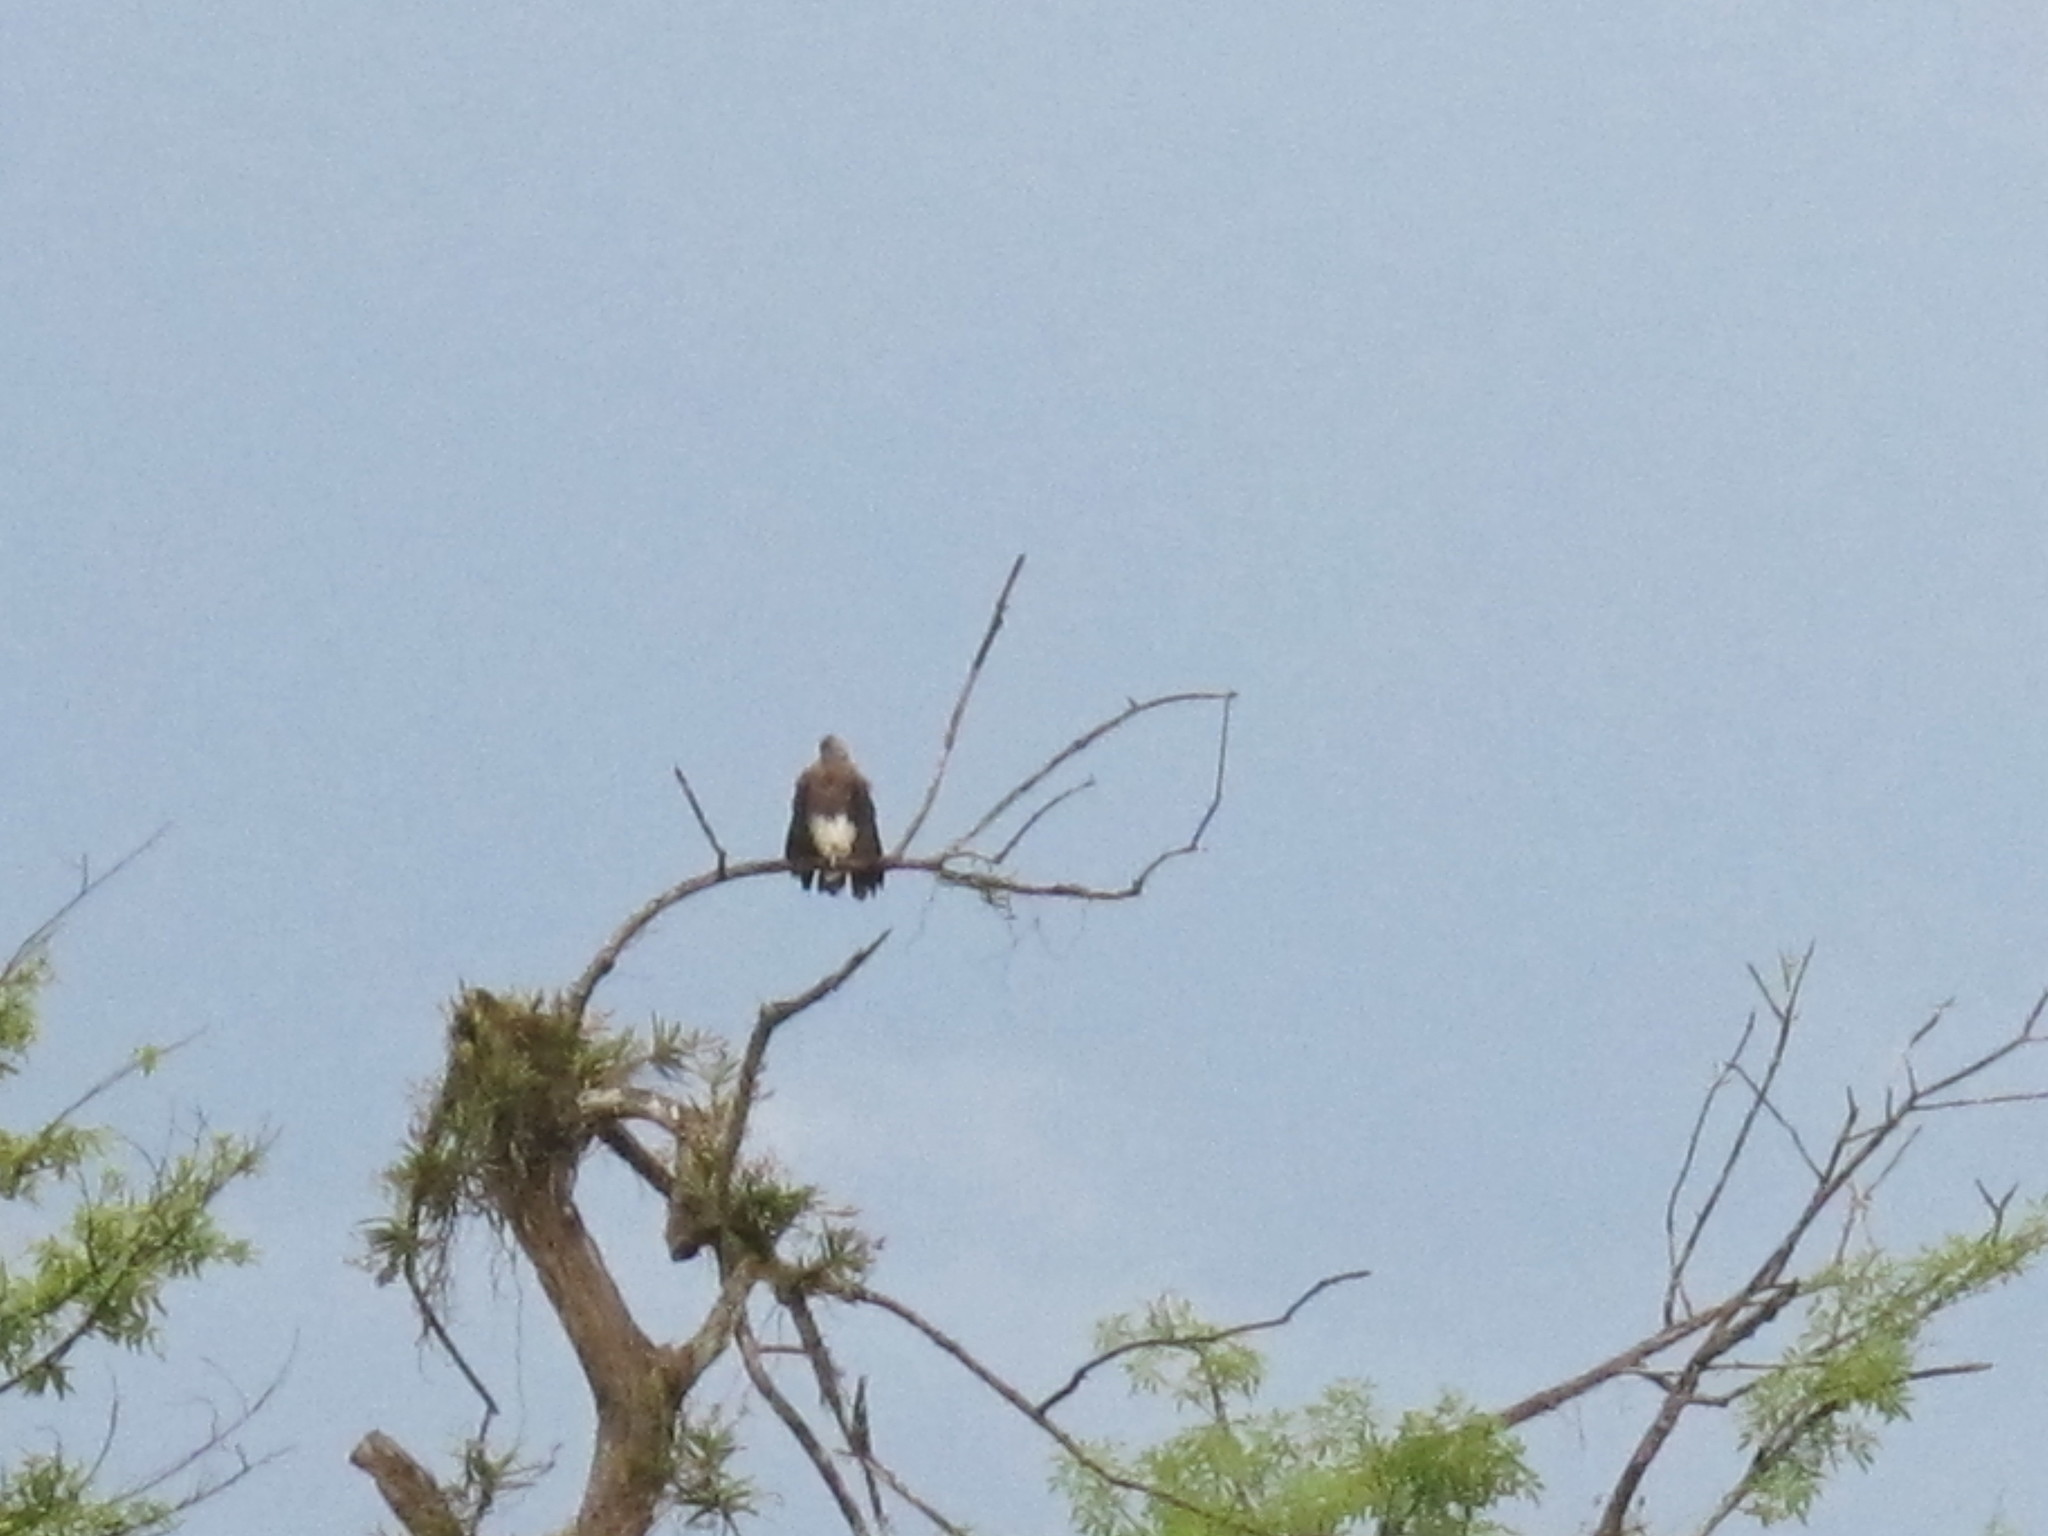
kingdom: Animalia
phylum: Chordata
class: Aves
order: Accipitriformes
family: Accipitridae
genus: Icthyophaga
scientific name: Icthyophaga ichthyaetus
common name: Grey-headed fish eagle
